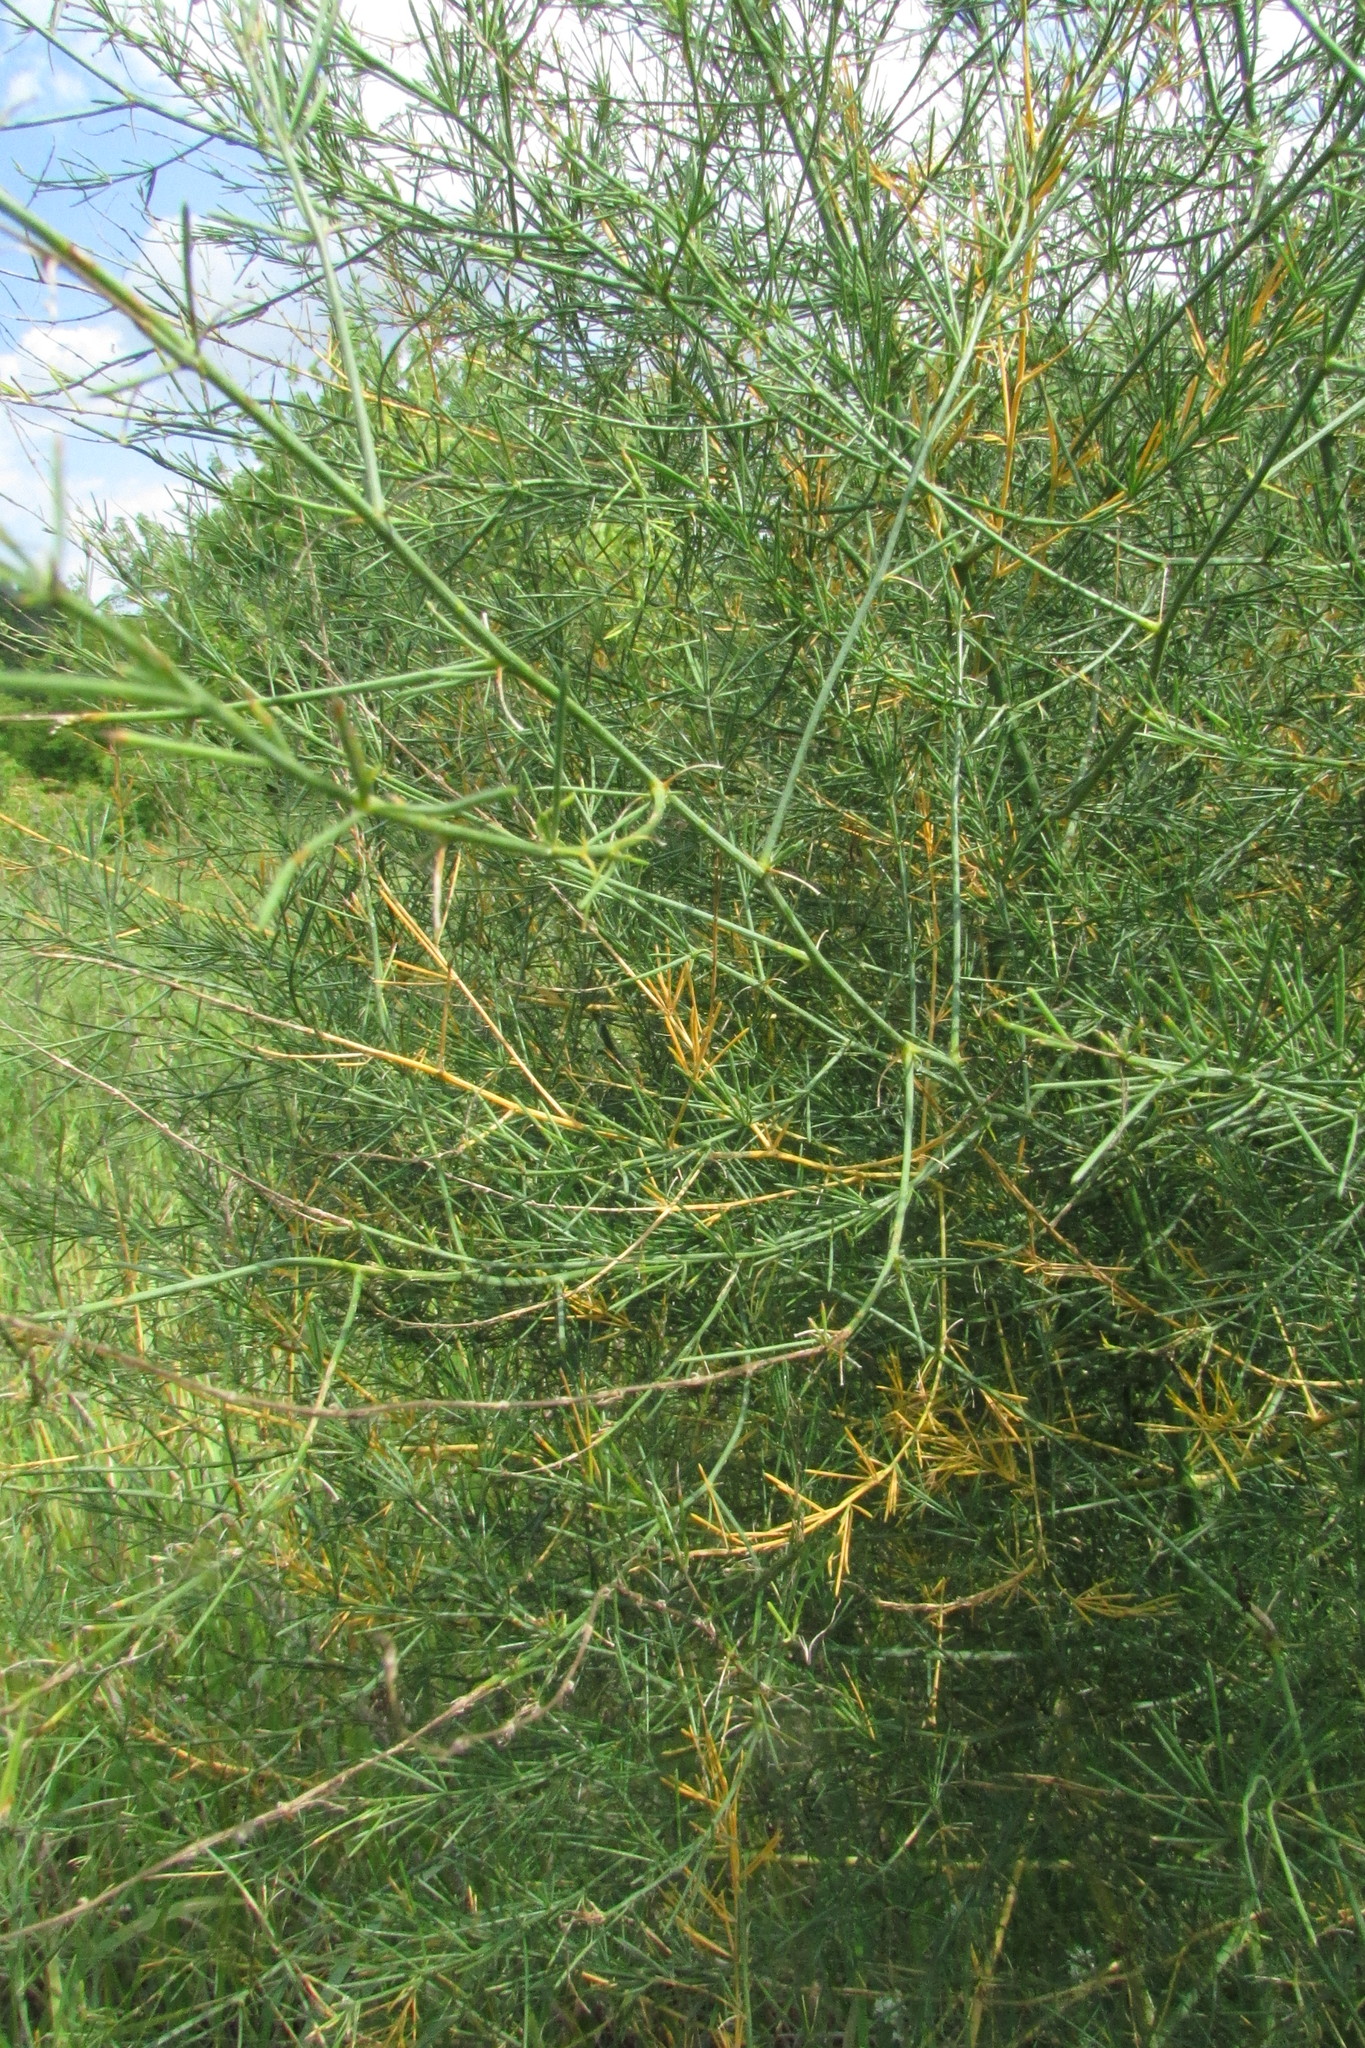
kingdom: Plantae
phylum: Tracheophyta
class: Liliopsida
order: Asparagales
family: Asparagaceae
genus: Asparagus
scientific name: Asparagus officinalis
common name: Garden asparagus
